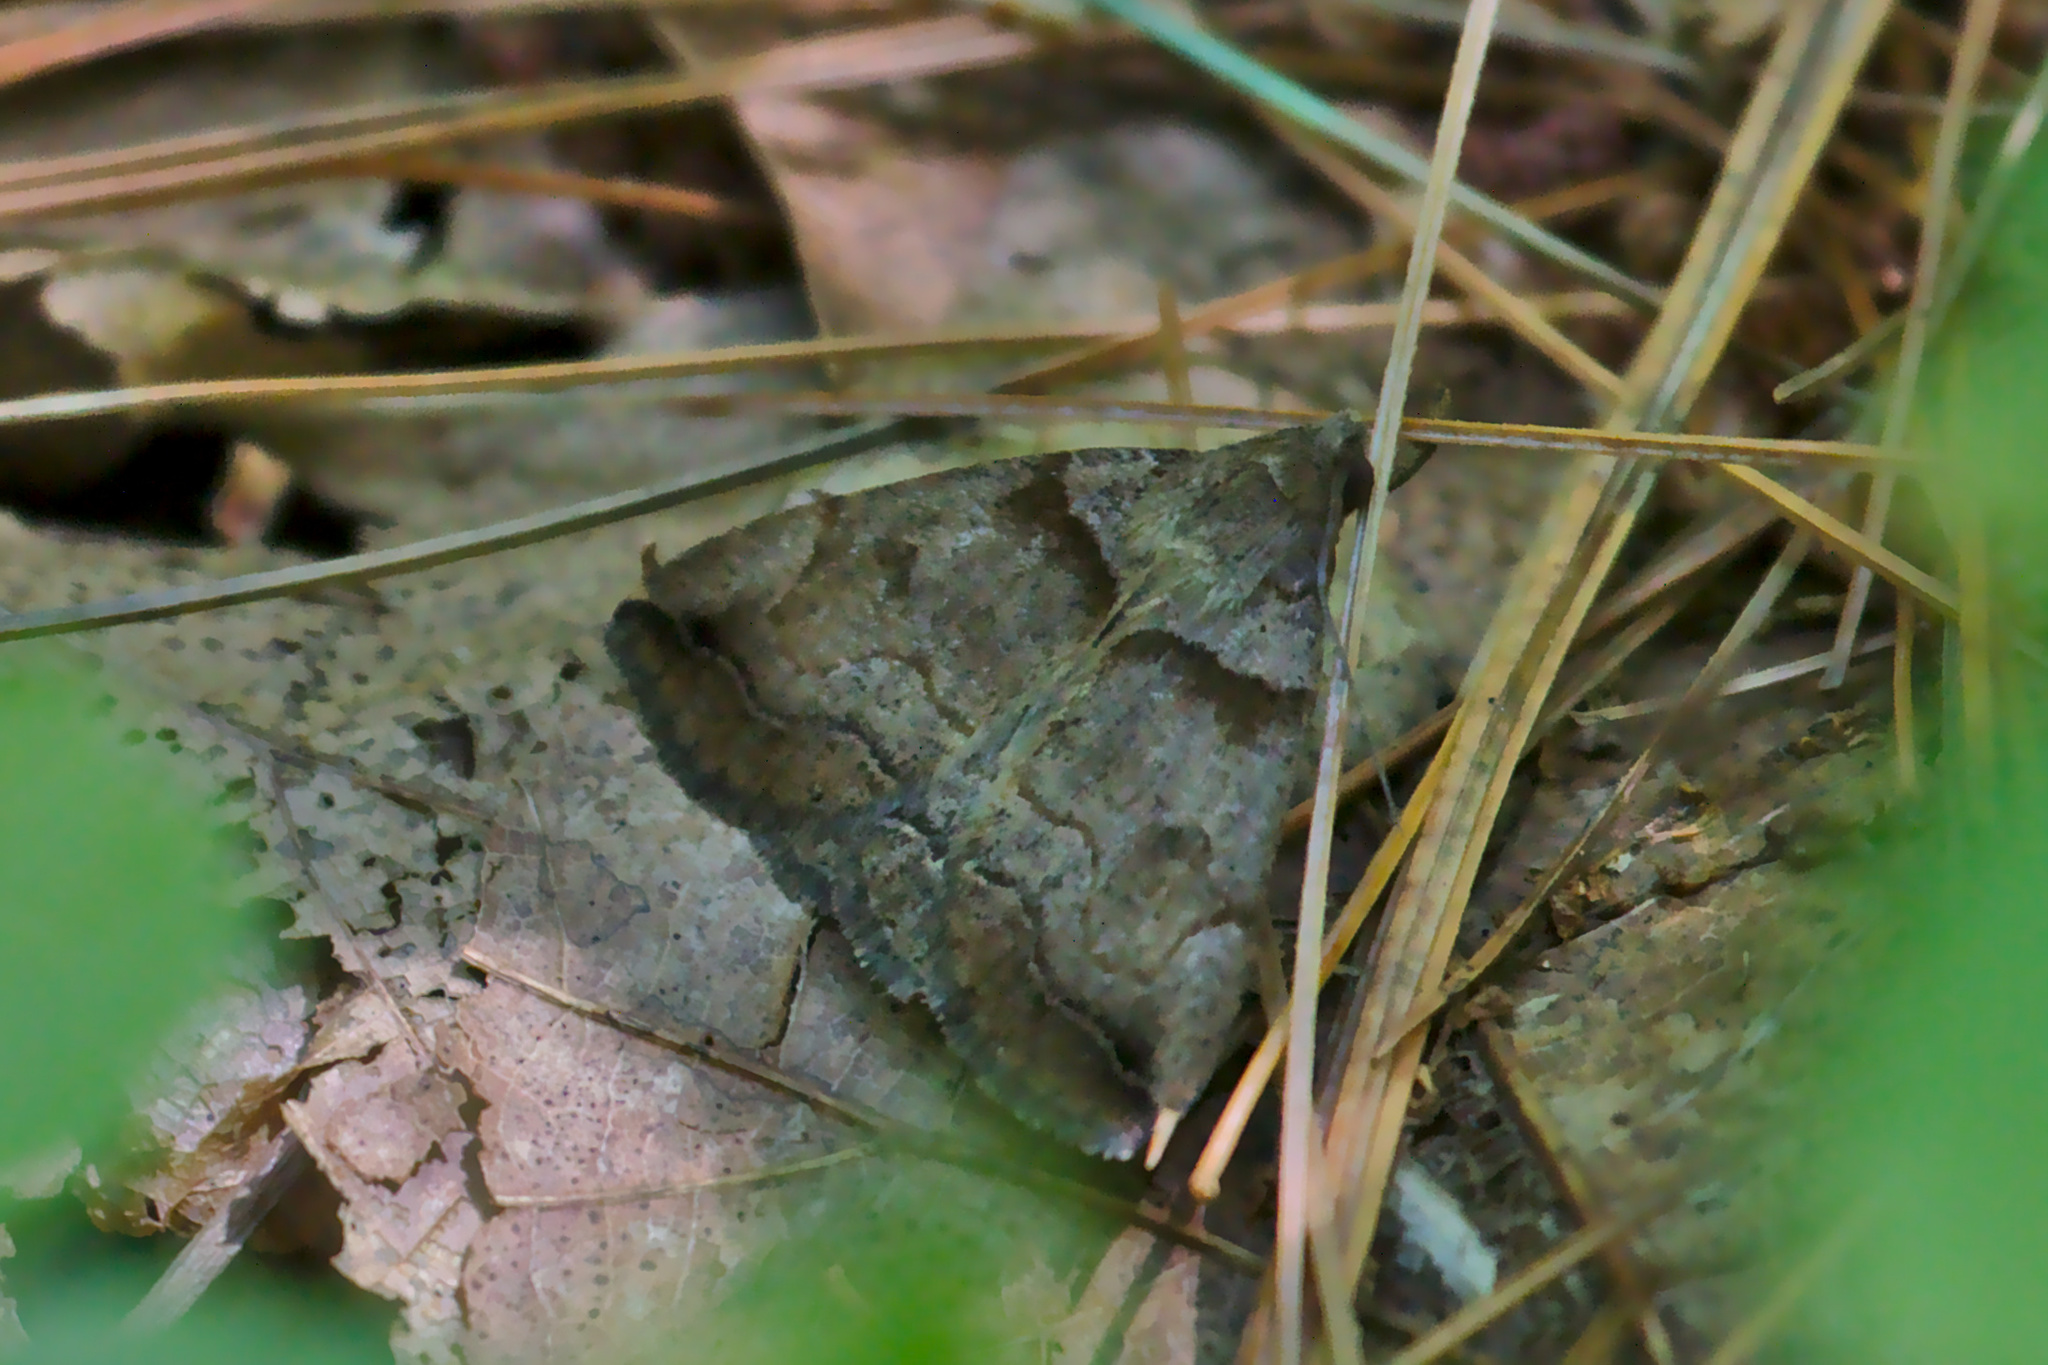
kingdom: Animalia
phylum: Arthropoda
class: Insecta
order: Lepidoptera
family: Erebidae
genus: Zanclognatha
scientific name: Zanclognatha laevigata
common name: Variable fan-foot
